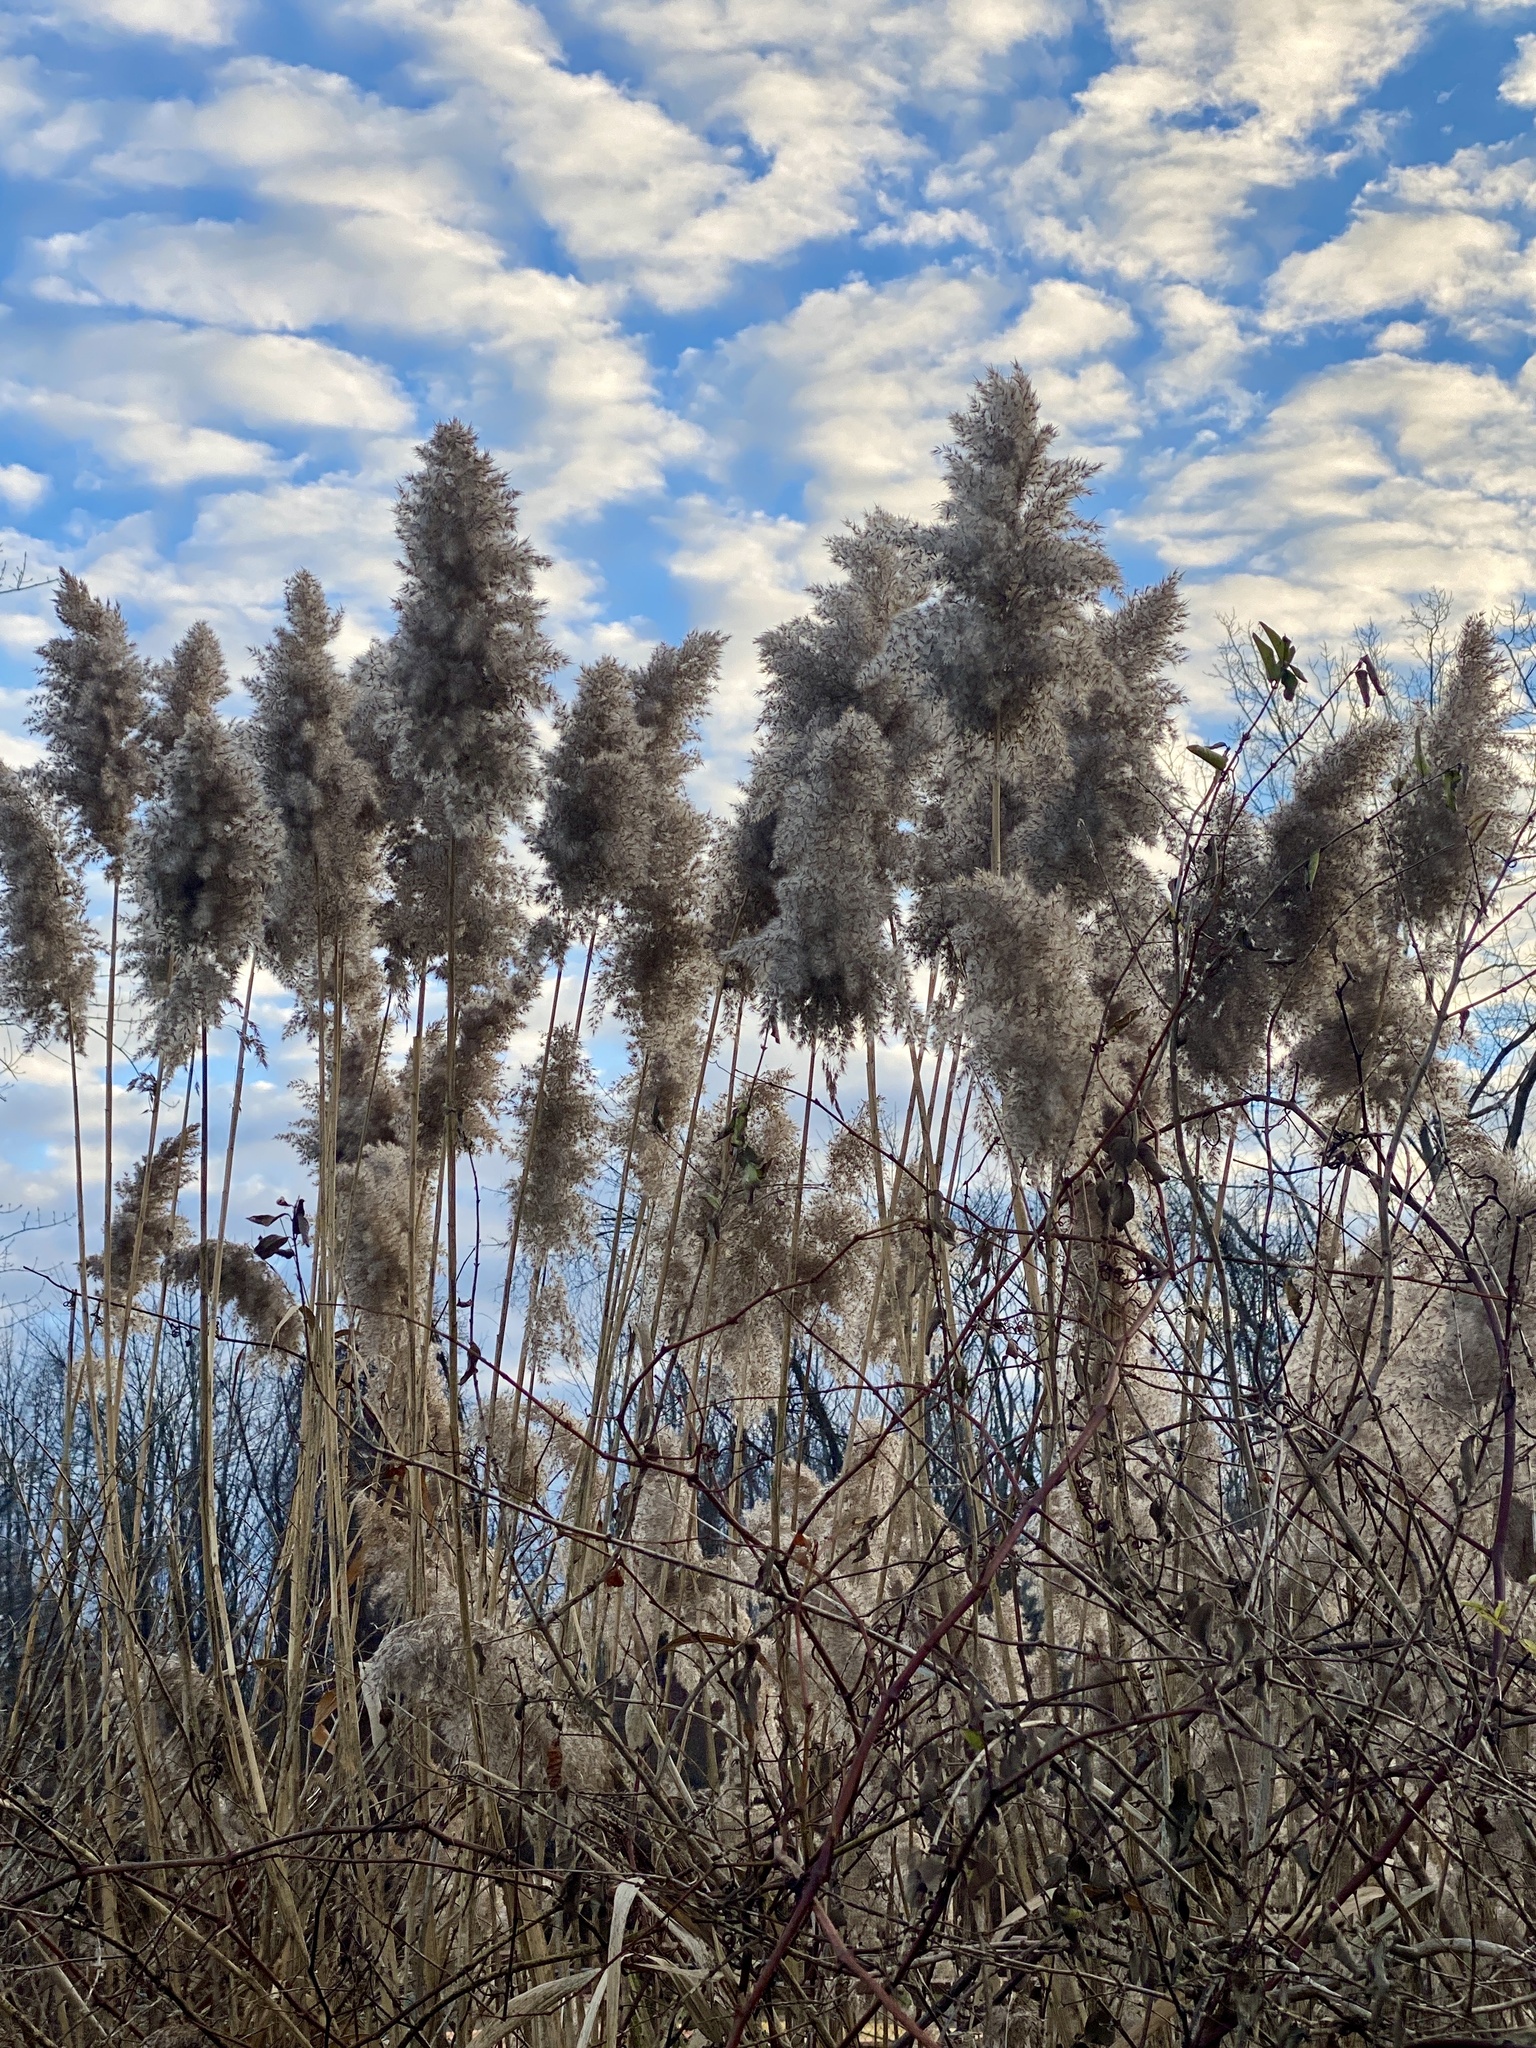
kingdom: Plantae
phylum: Tracheophyta
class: Liliopsida
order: Poales
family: Poaceae
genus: Phragmites
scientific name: Phragmites australis
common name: Common reed
